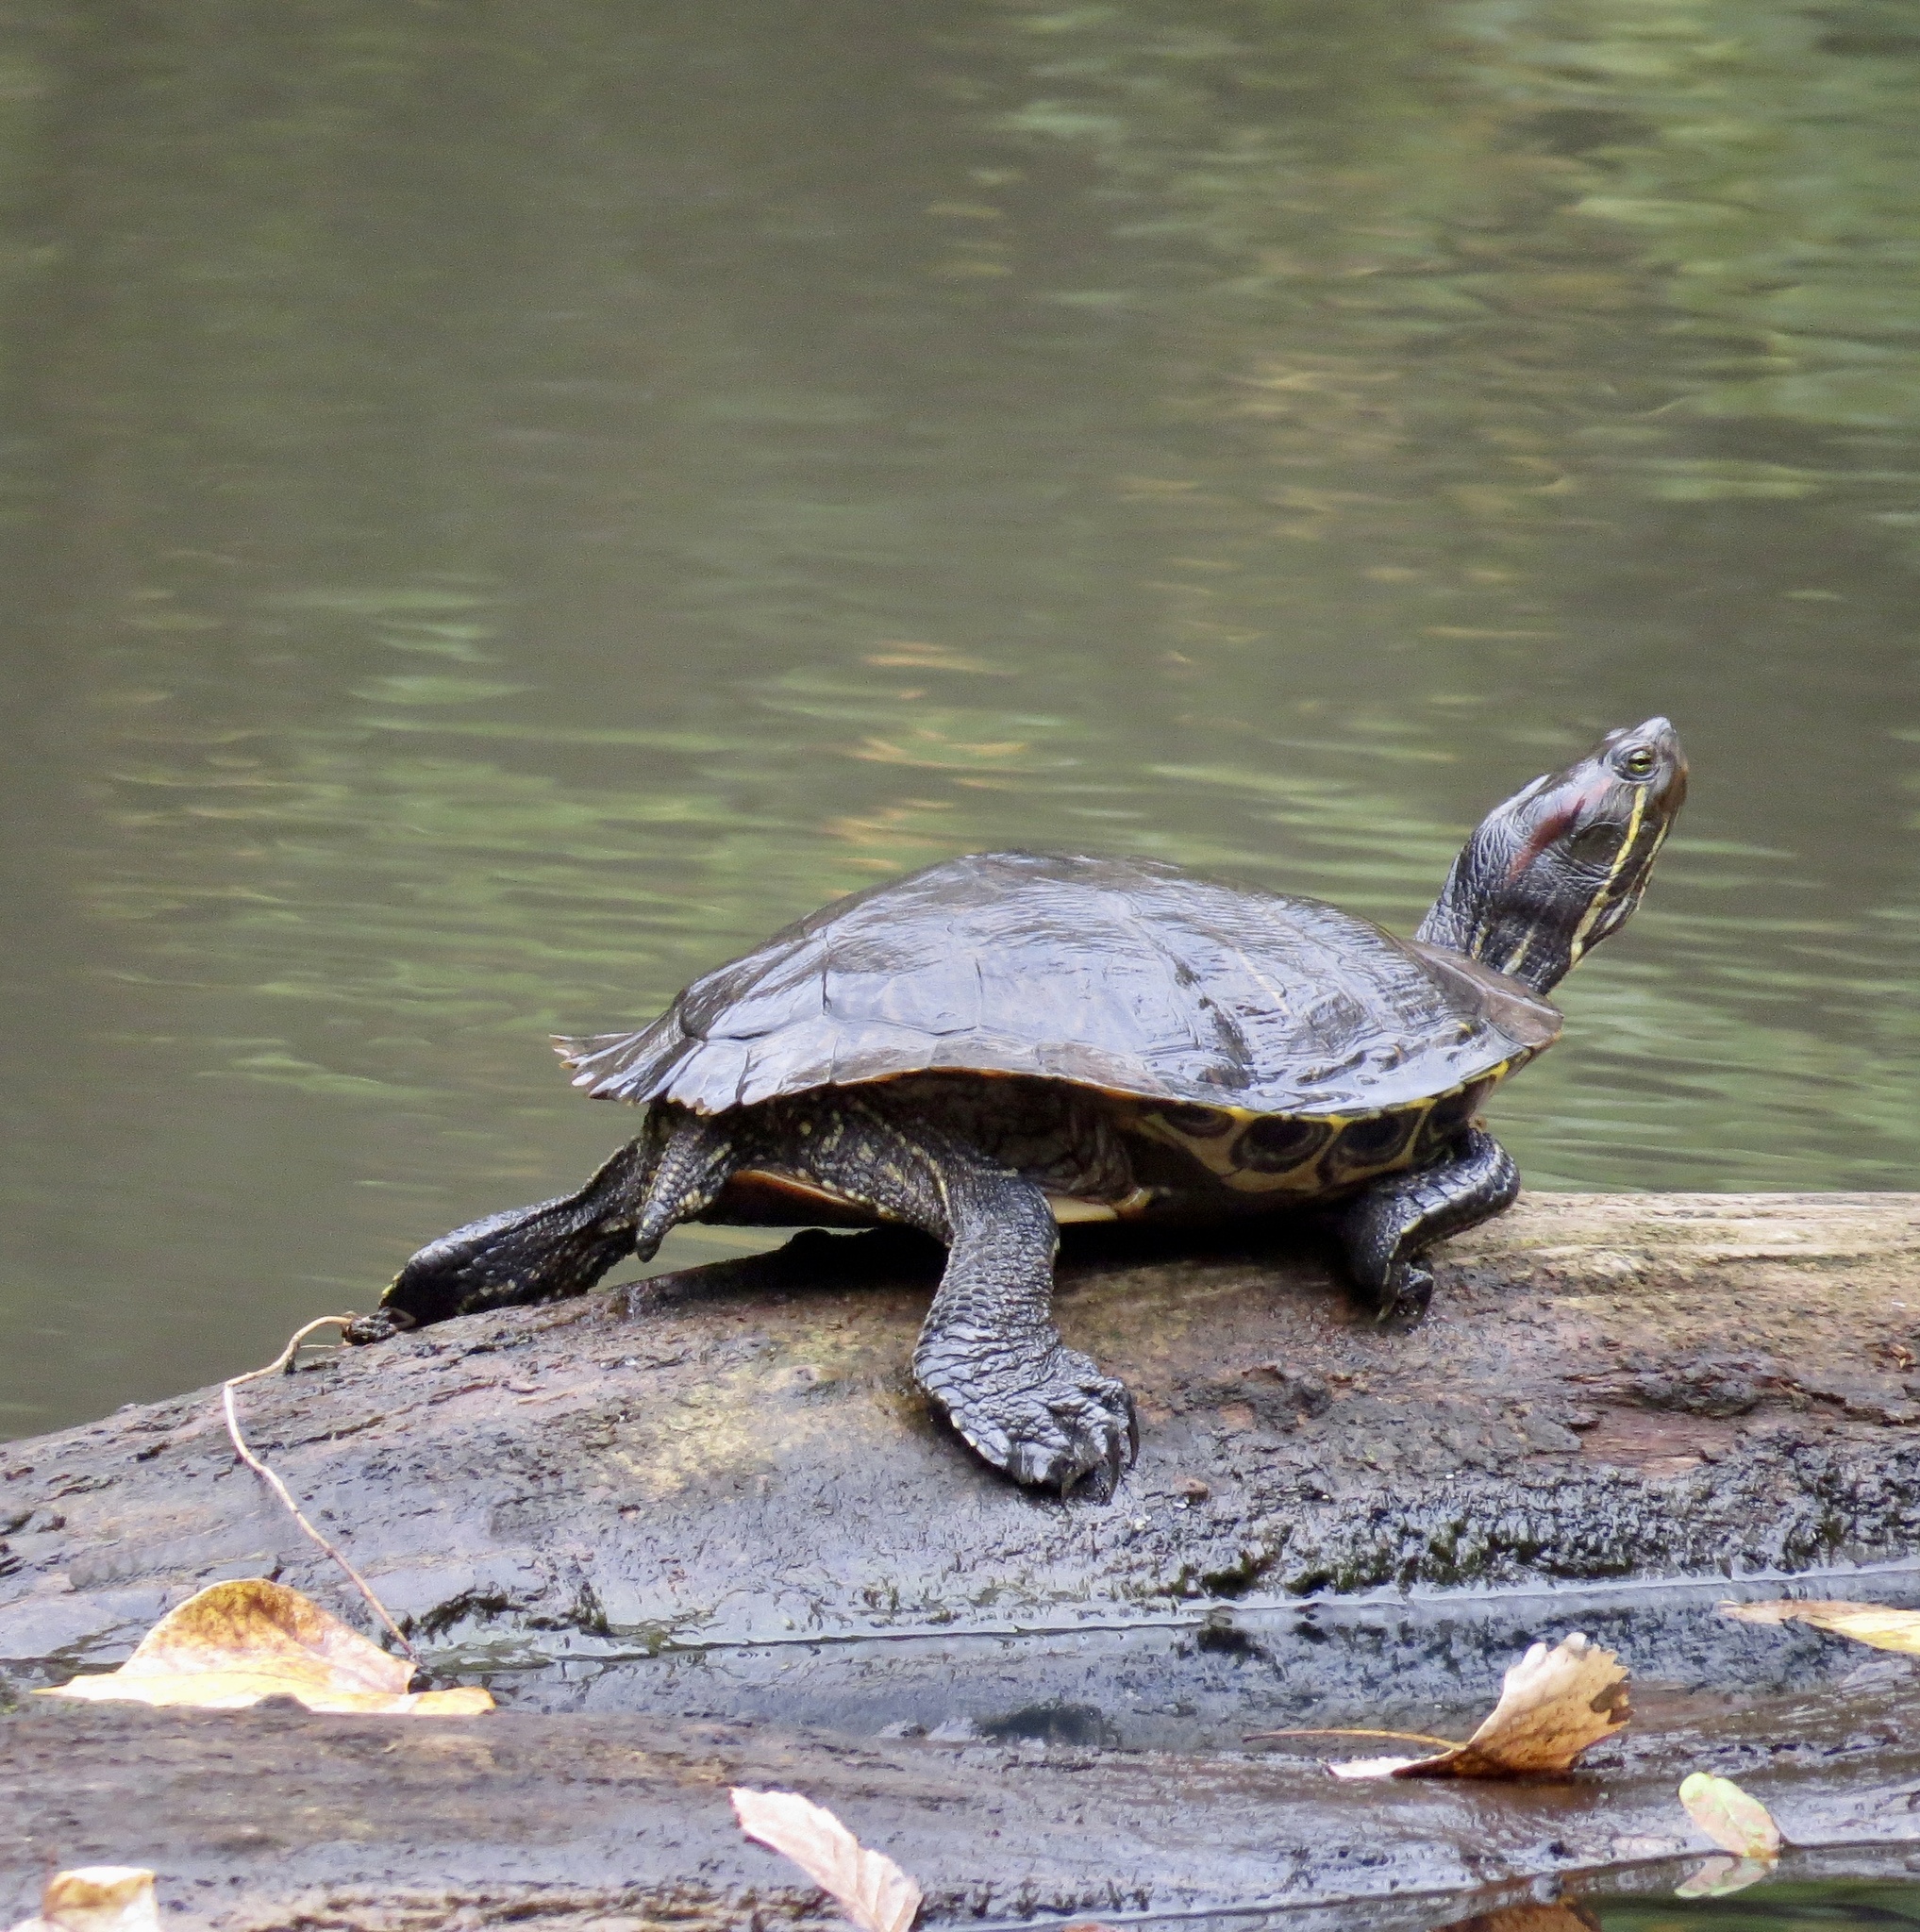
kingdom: Animalia
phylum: Chordata
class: Testudines
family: Emydidae
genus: Trachemys
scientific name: Trachemys scripta
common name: Slider
